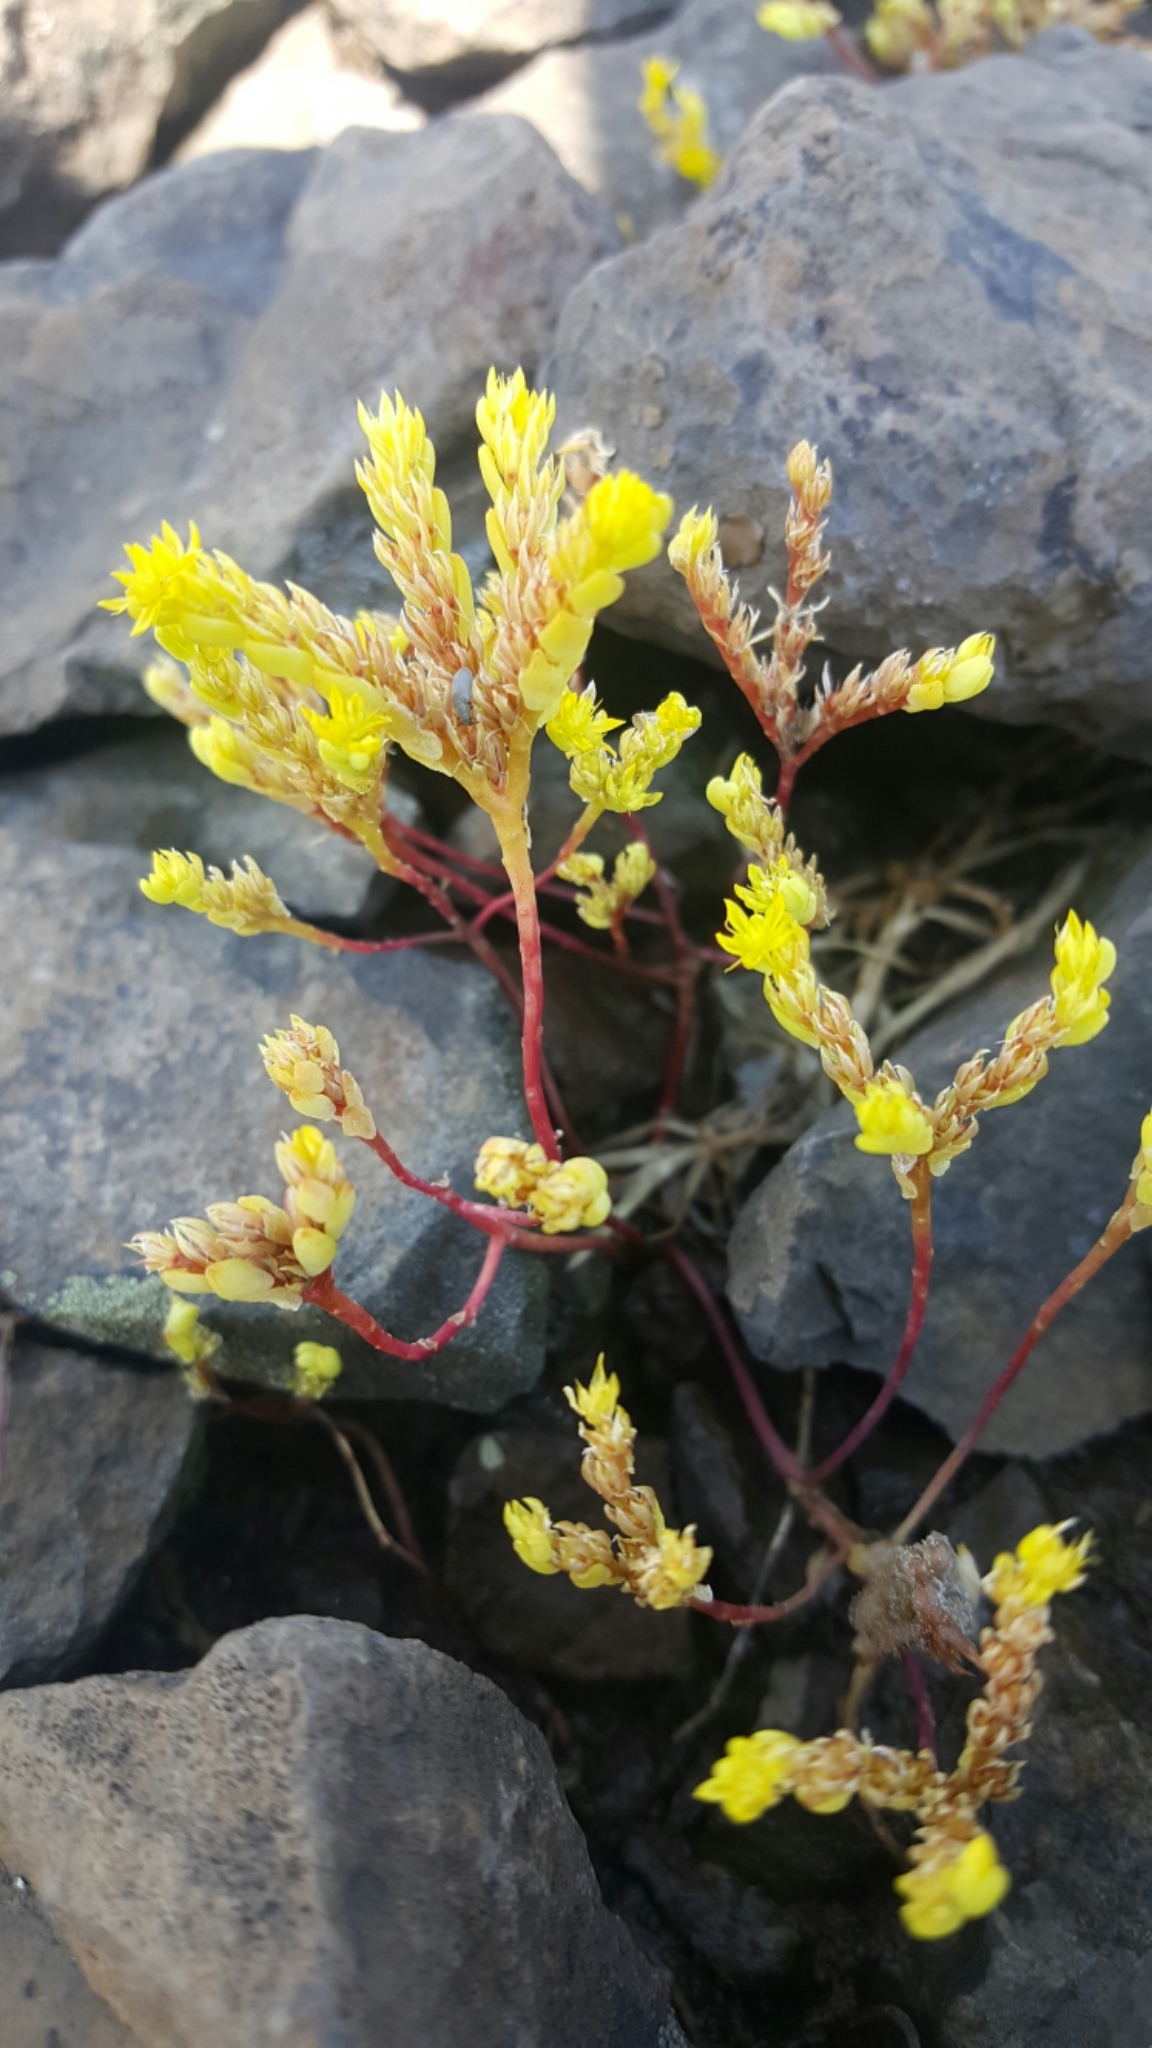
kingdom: Plantae
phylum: Tracheophyta
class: Magnoliopsida
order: Saxifragales
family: Crassulaceae
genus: Sedella
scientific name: Sedella pumila
